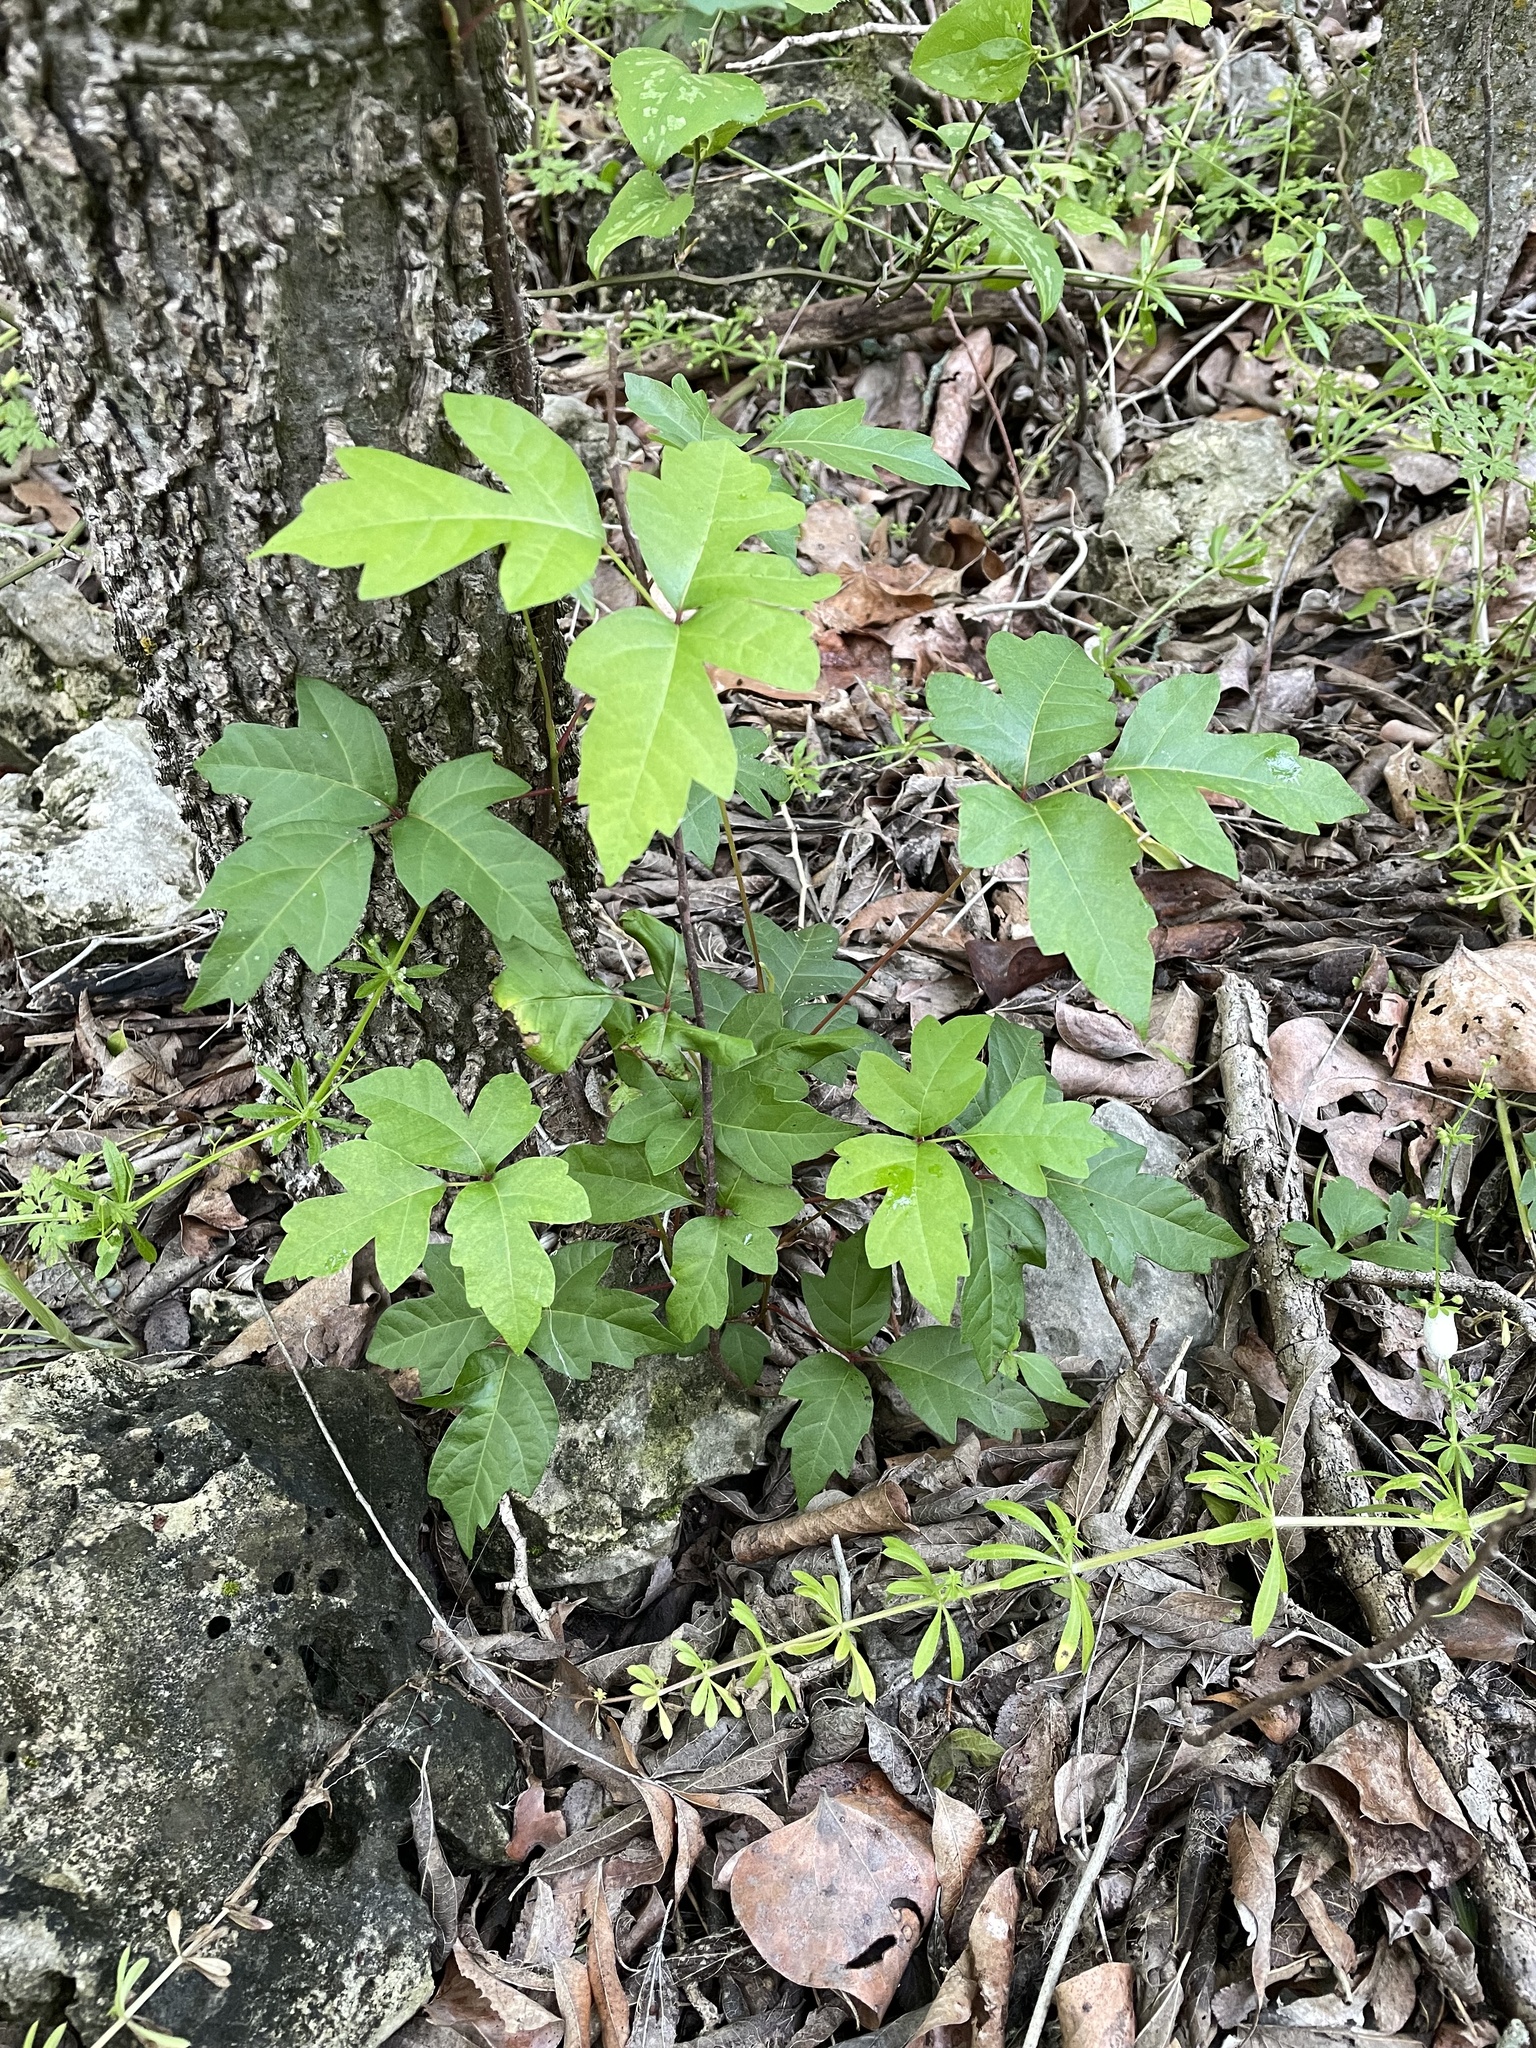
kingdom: Plantae
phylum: Tracheophyta
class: Magnoliopsida
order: Sapindales
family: Anacardiaceae
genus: Toxicodendron
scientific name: Toxicodendron radicans
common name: Poison ivy
